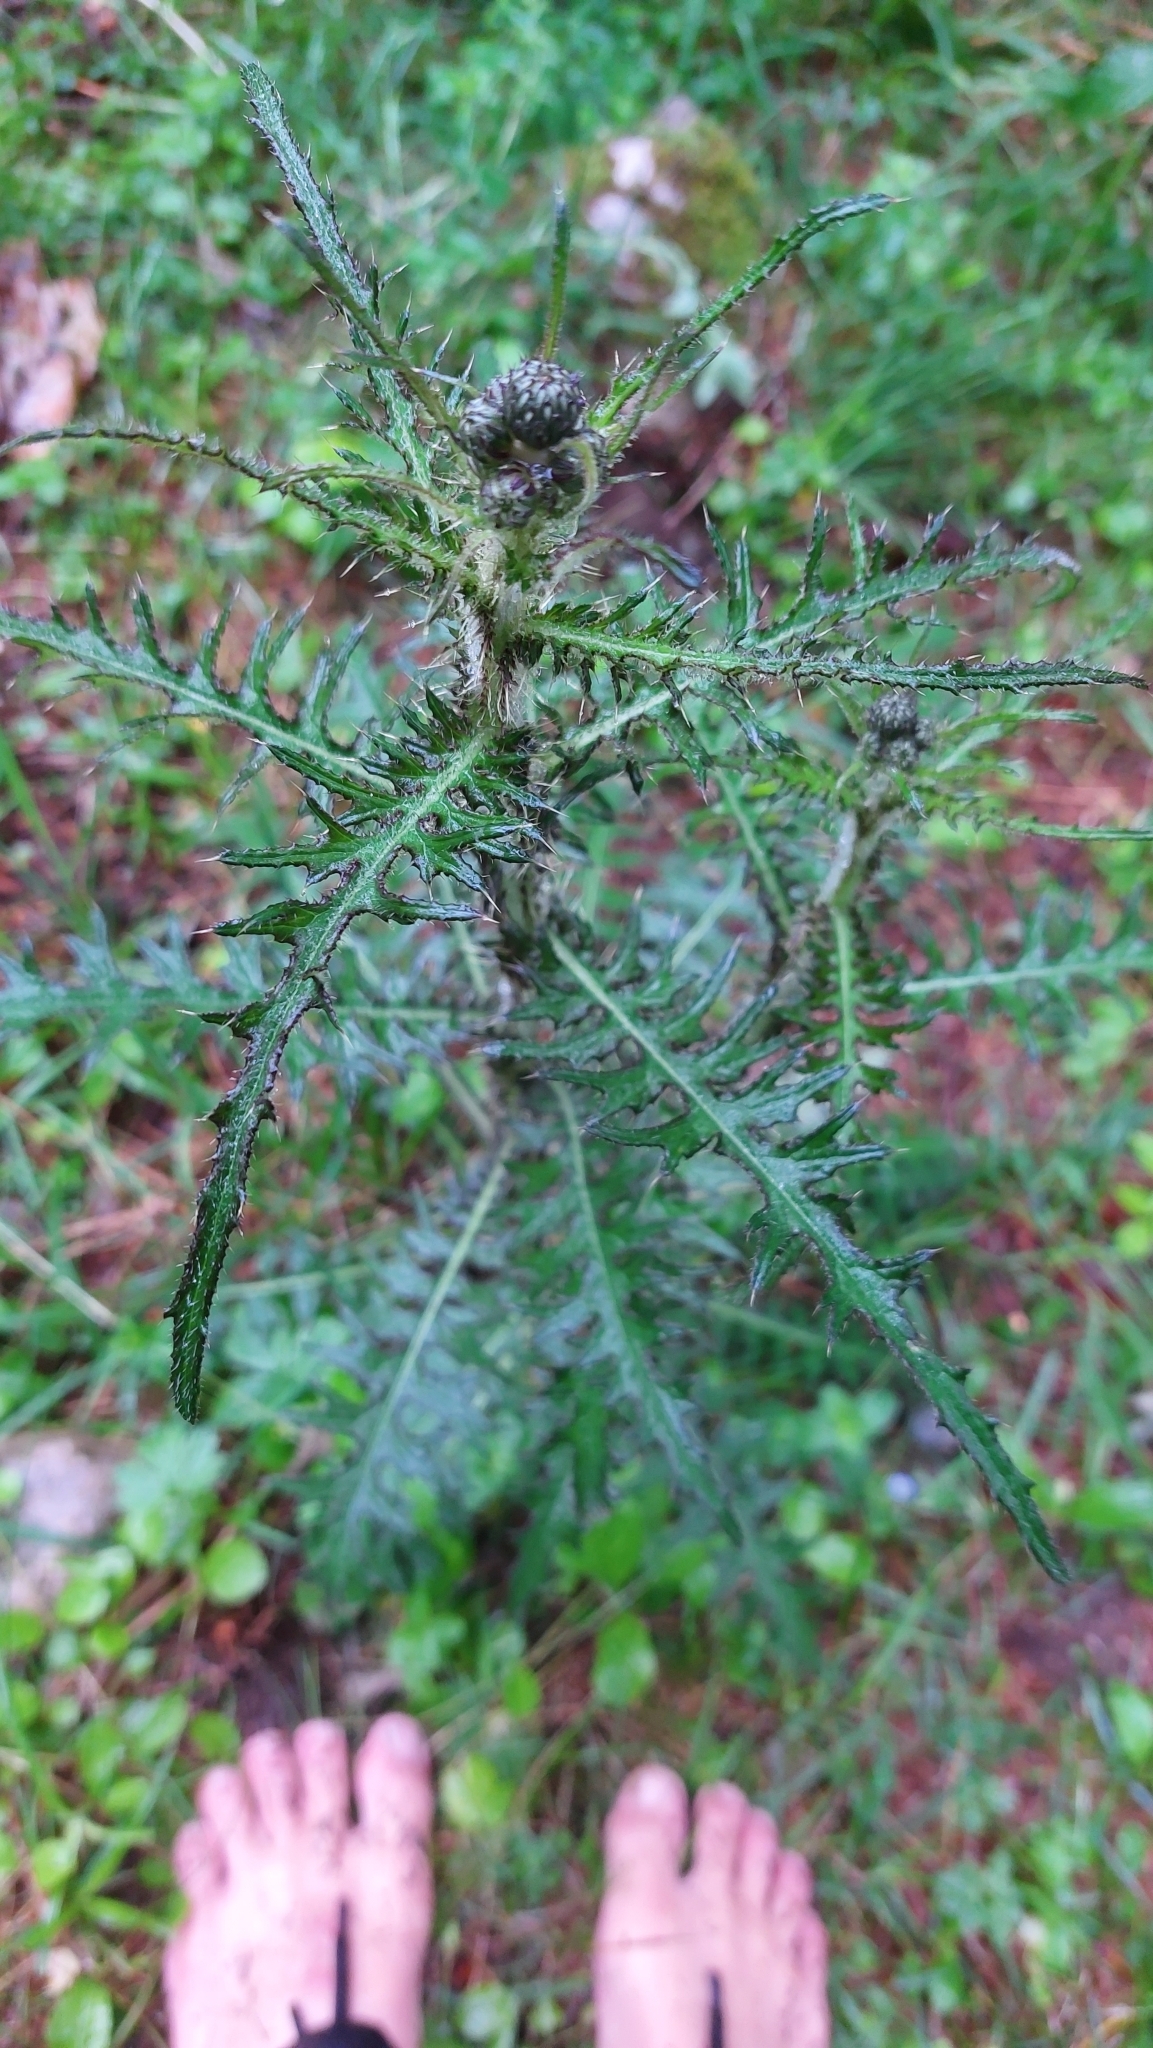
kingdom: Plantae
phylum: Tracheophyta
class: Magnoliopsida
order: Asterales
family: Asteraceae
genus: Cirsium
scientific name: Cirsium palustre
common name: Marsh thistle
